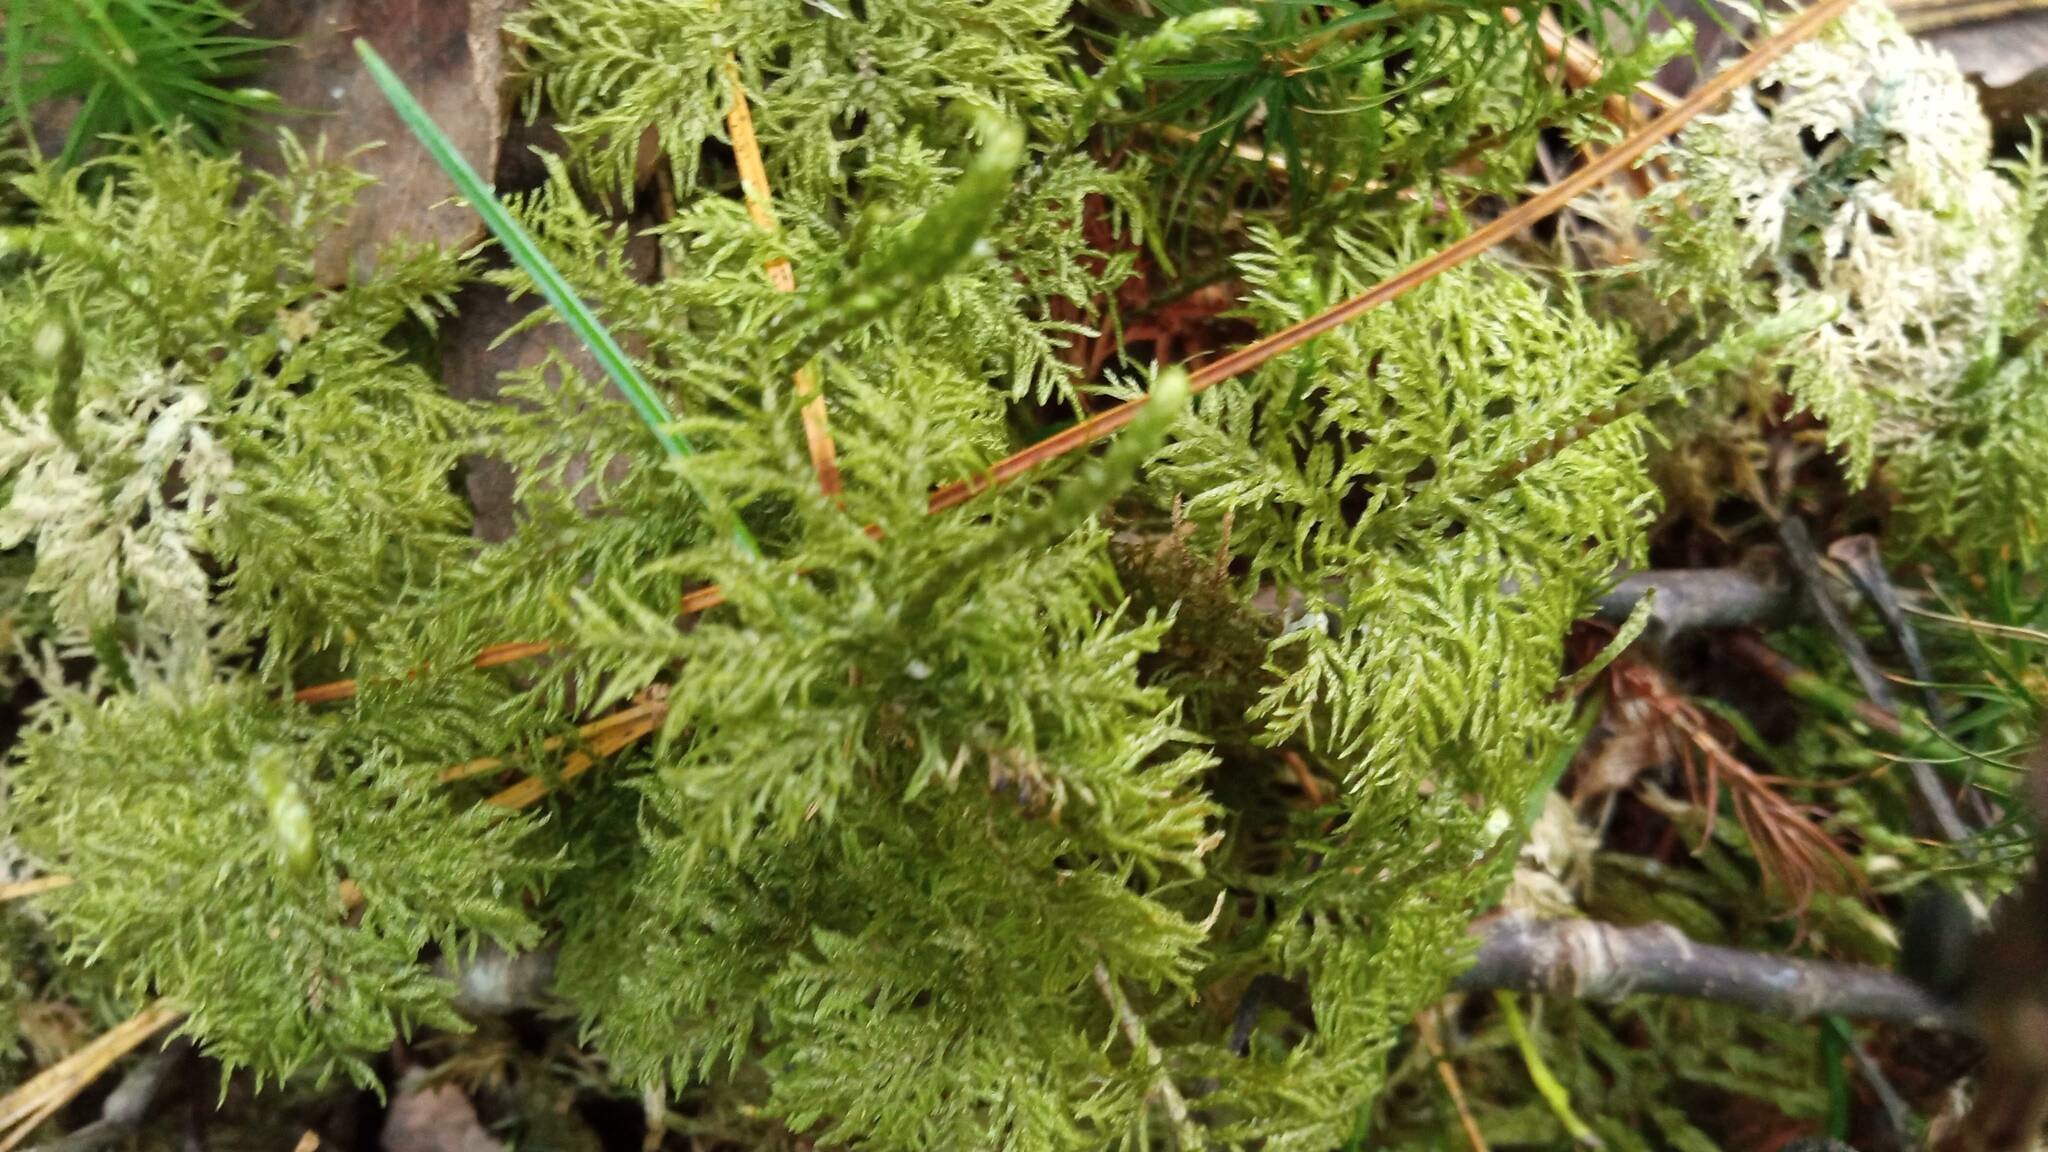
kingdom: Plantae
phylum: Bryophyta
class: Bryopsida
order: Hypnales
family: Hylocomiaceae
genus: Hylocomium
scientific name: Hylocomium splendens
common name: Stairstep moss
